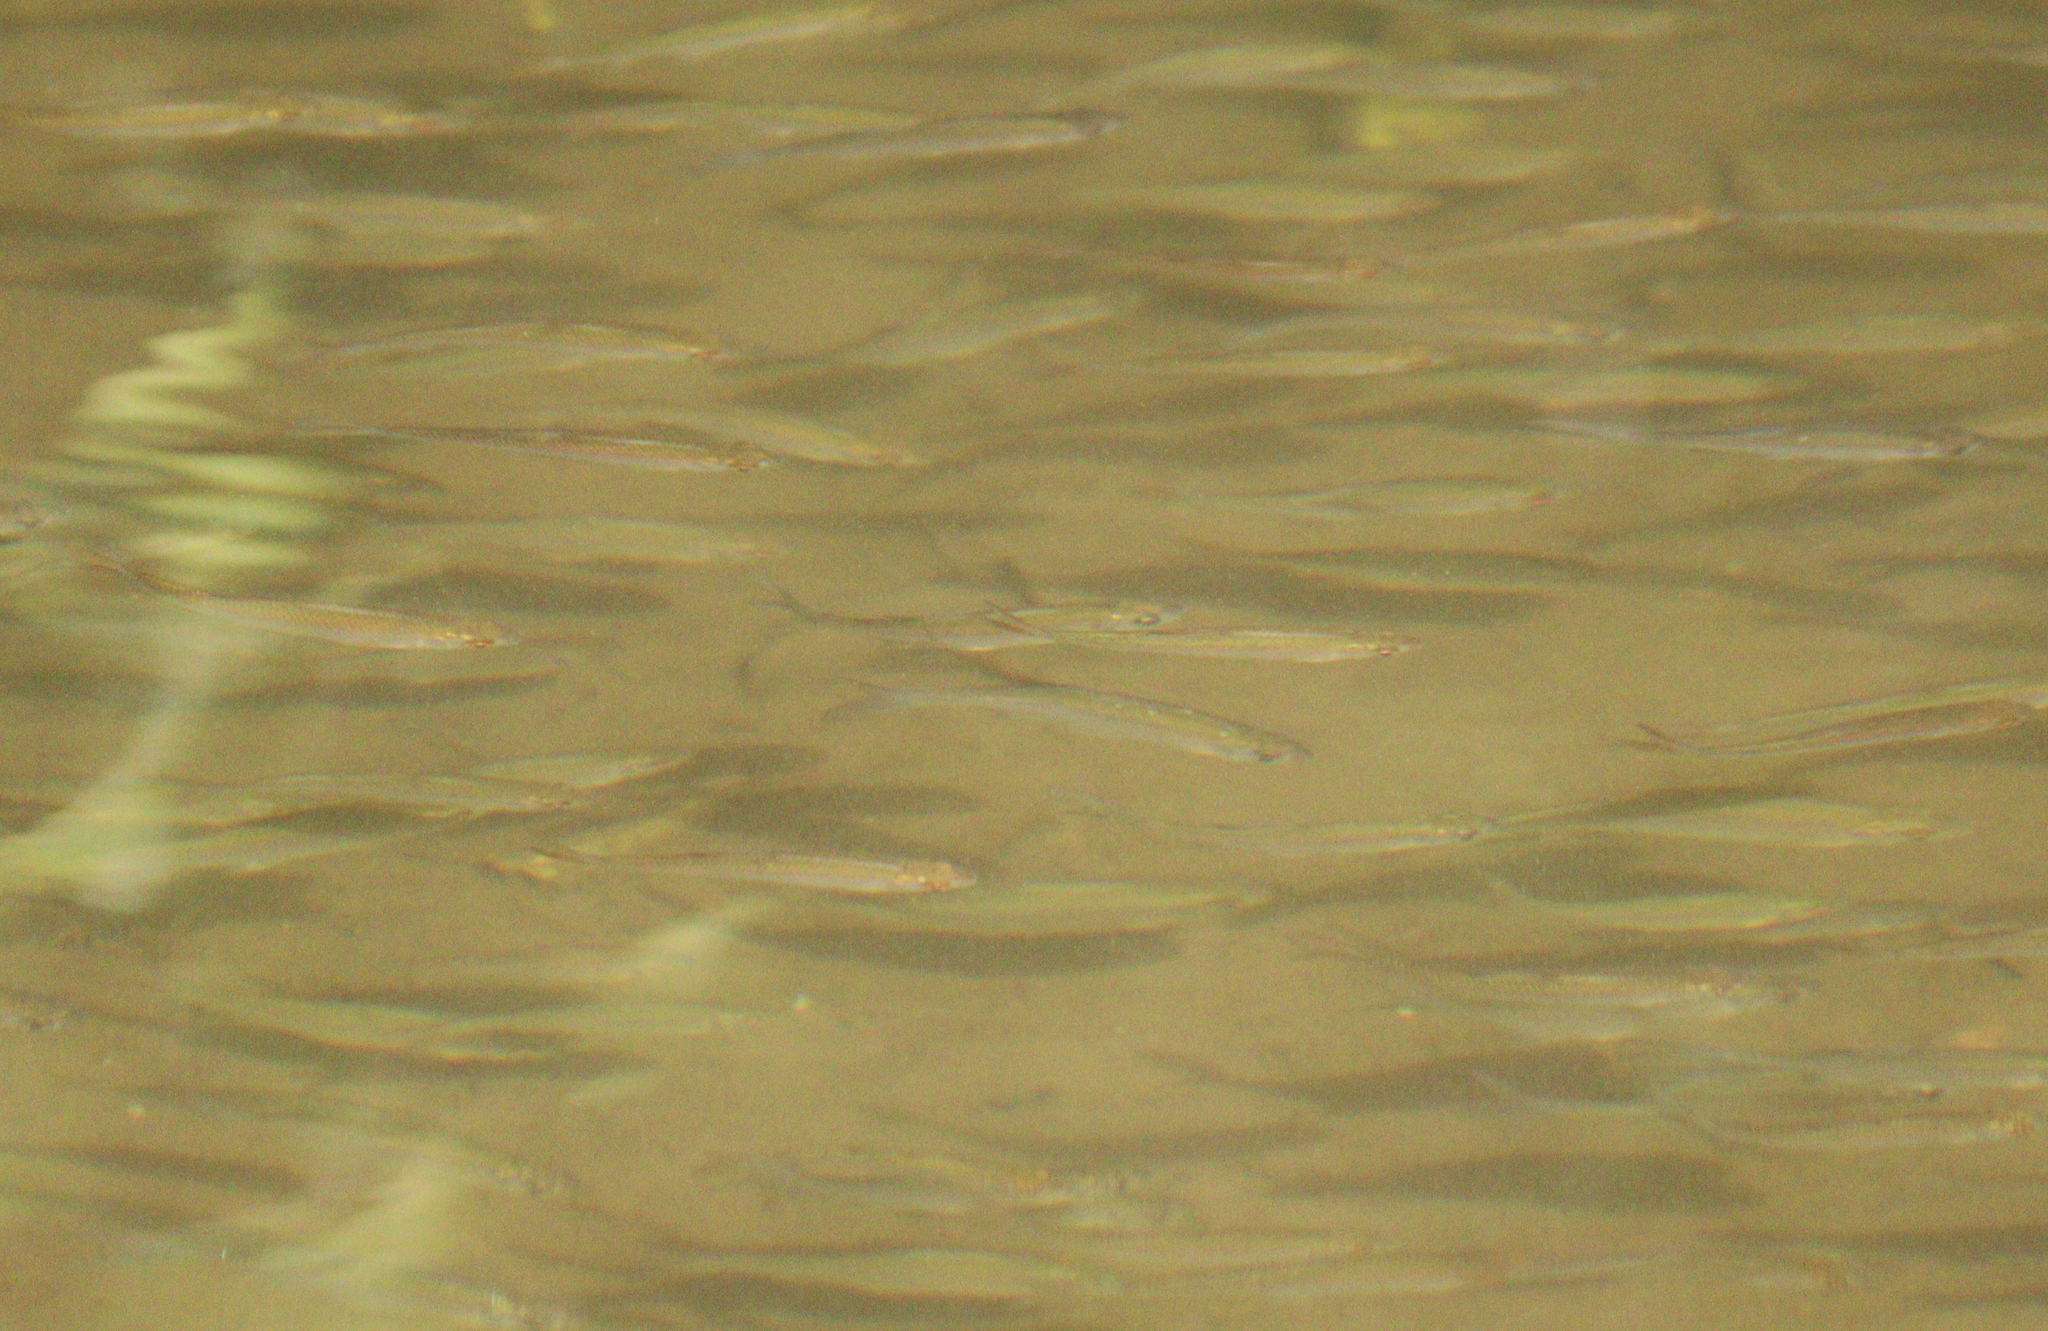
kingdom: Animalia
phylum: Chordata
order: Cypriniformes
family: Cyprinidae
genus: Alburnus
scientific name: Alburnus alburnus
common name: Bleak
